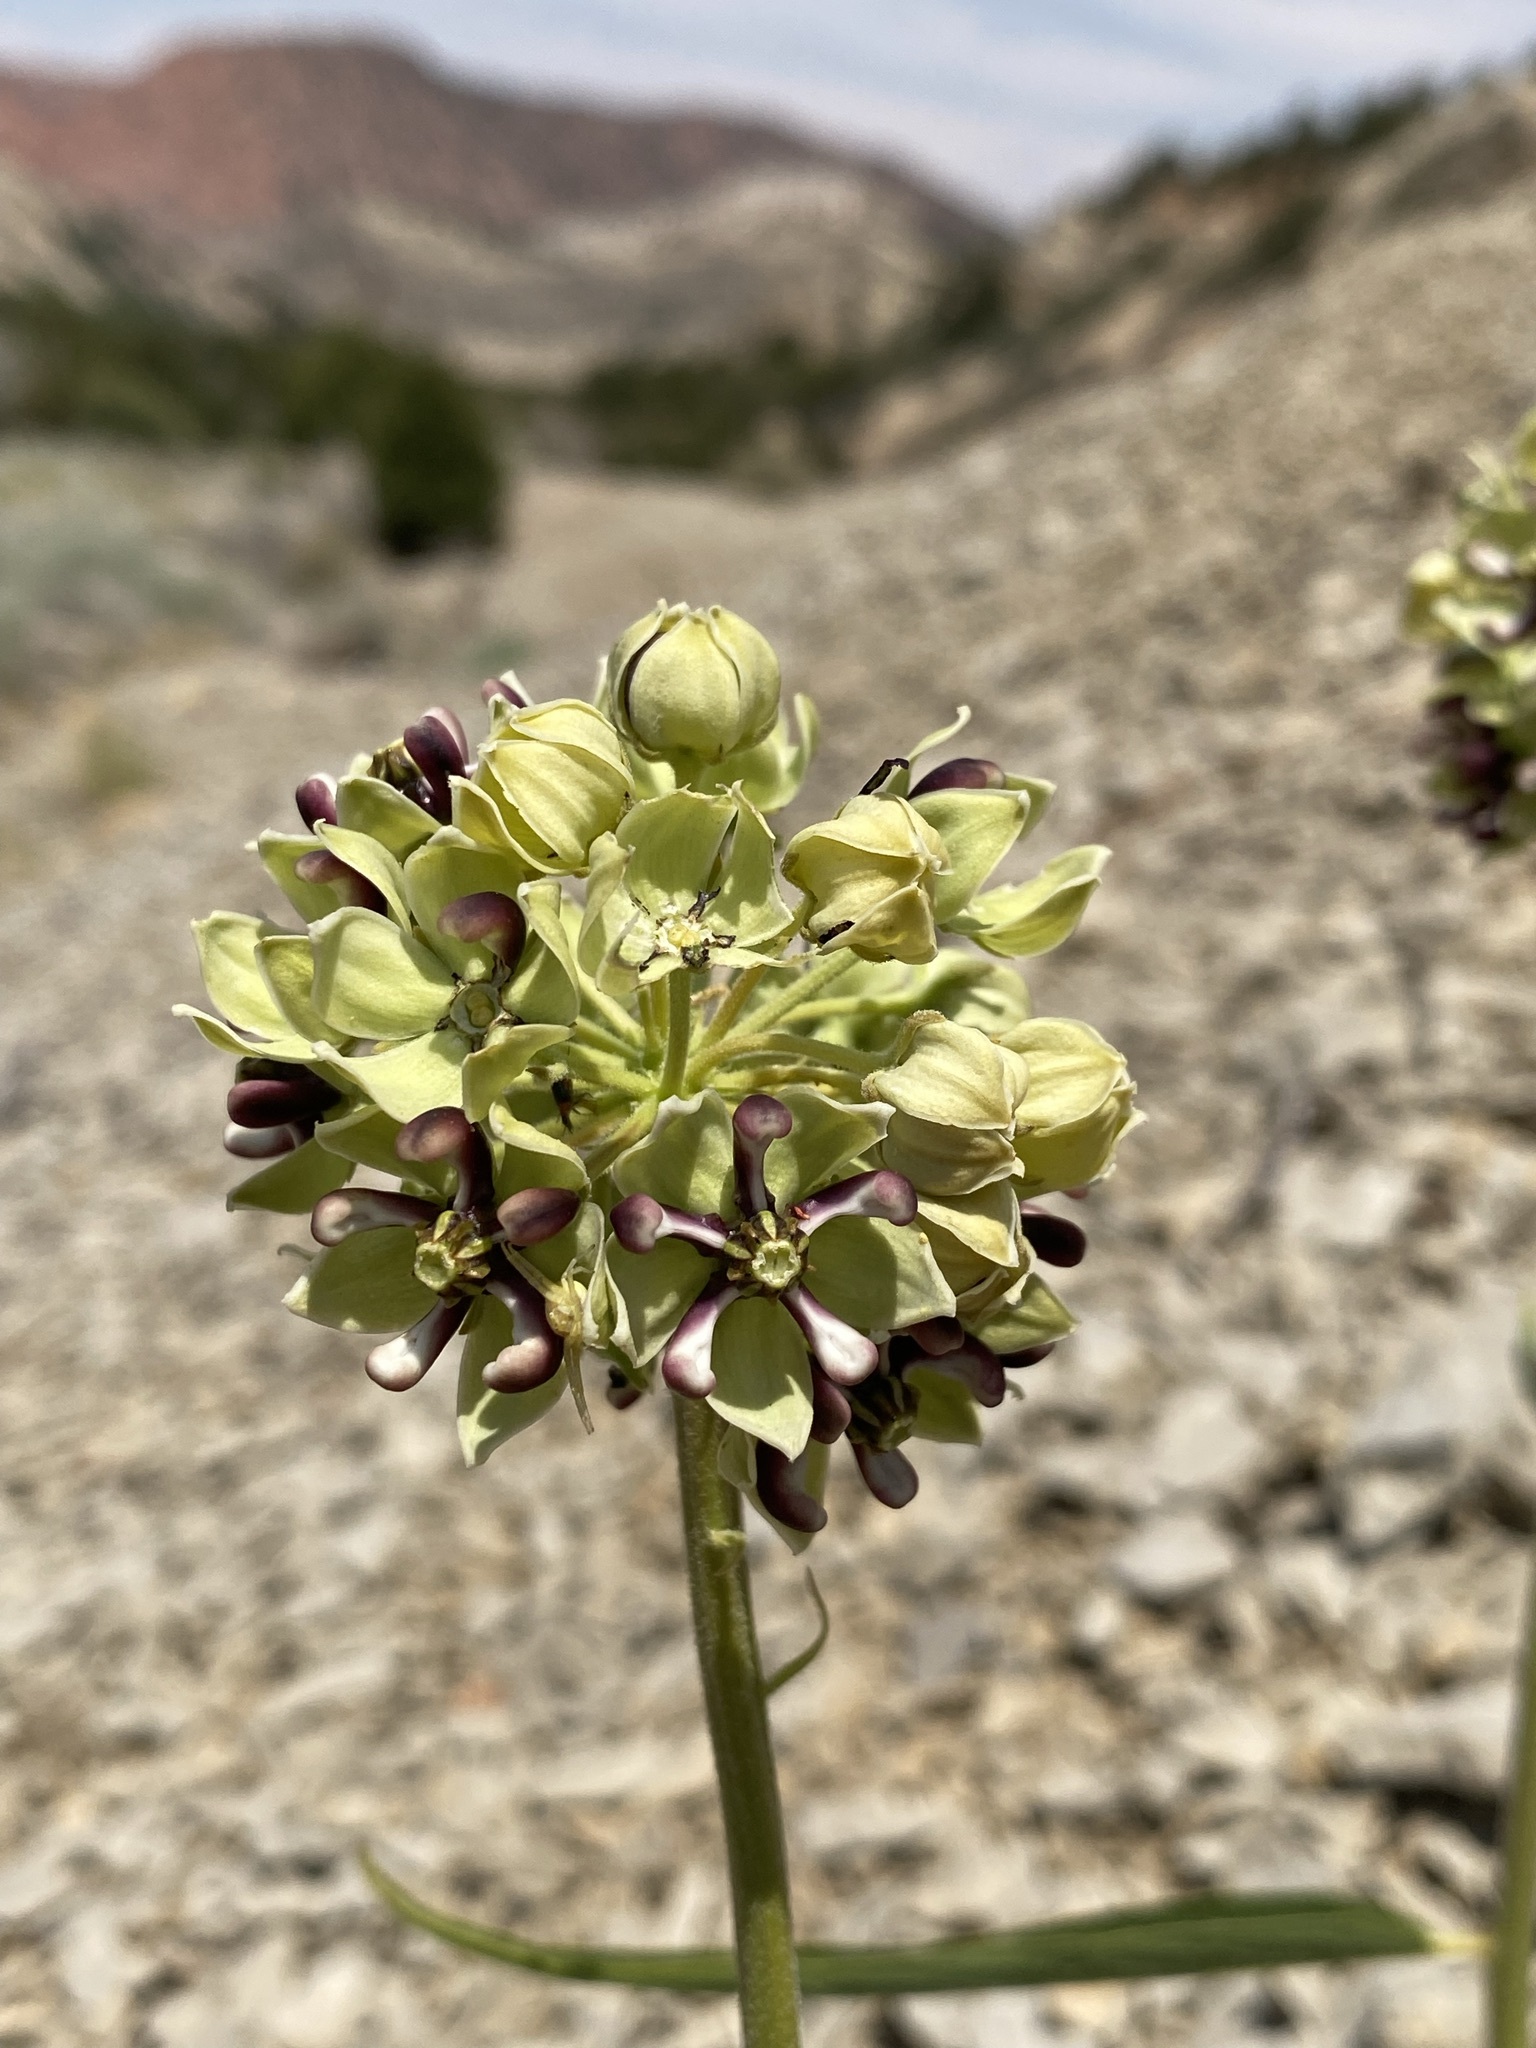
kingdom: Plantae
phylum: Tracheophyta
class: Magnoliopsida
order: Gentianales
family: Apocynaceae
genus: Asclepias
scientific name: Asclepias asperula
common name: Antelope horns
